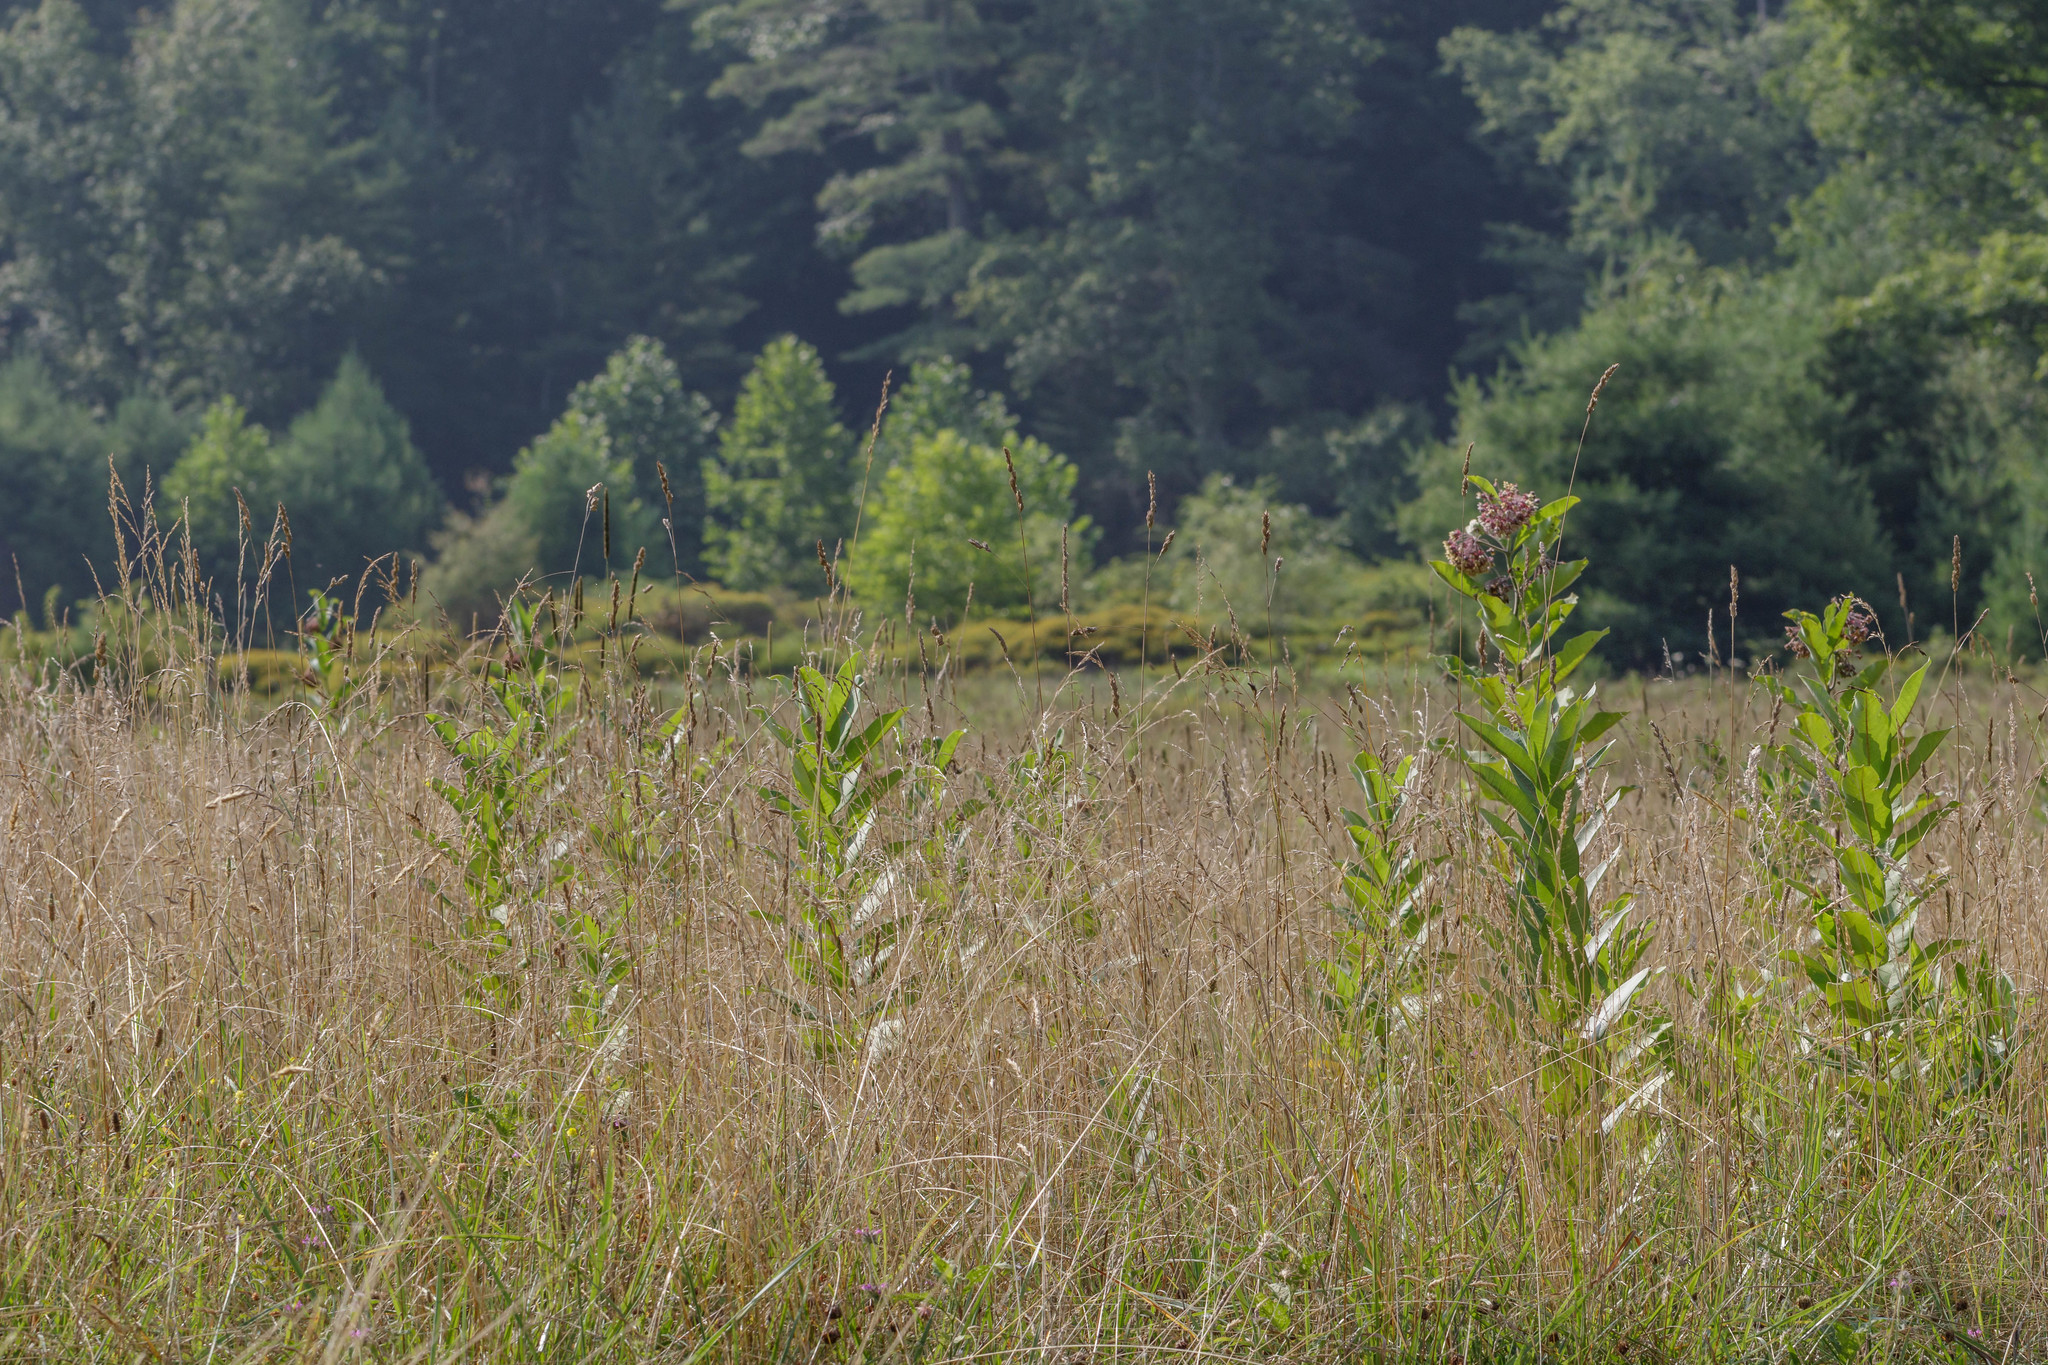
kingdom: Plantae
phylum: Tracheophyta
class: Magnoliopsida
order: Gentianales
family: Apocynaceae
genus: Asclepias
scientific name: Asclepias syriaca
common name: Common milkweed
